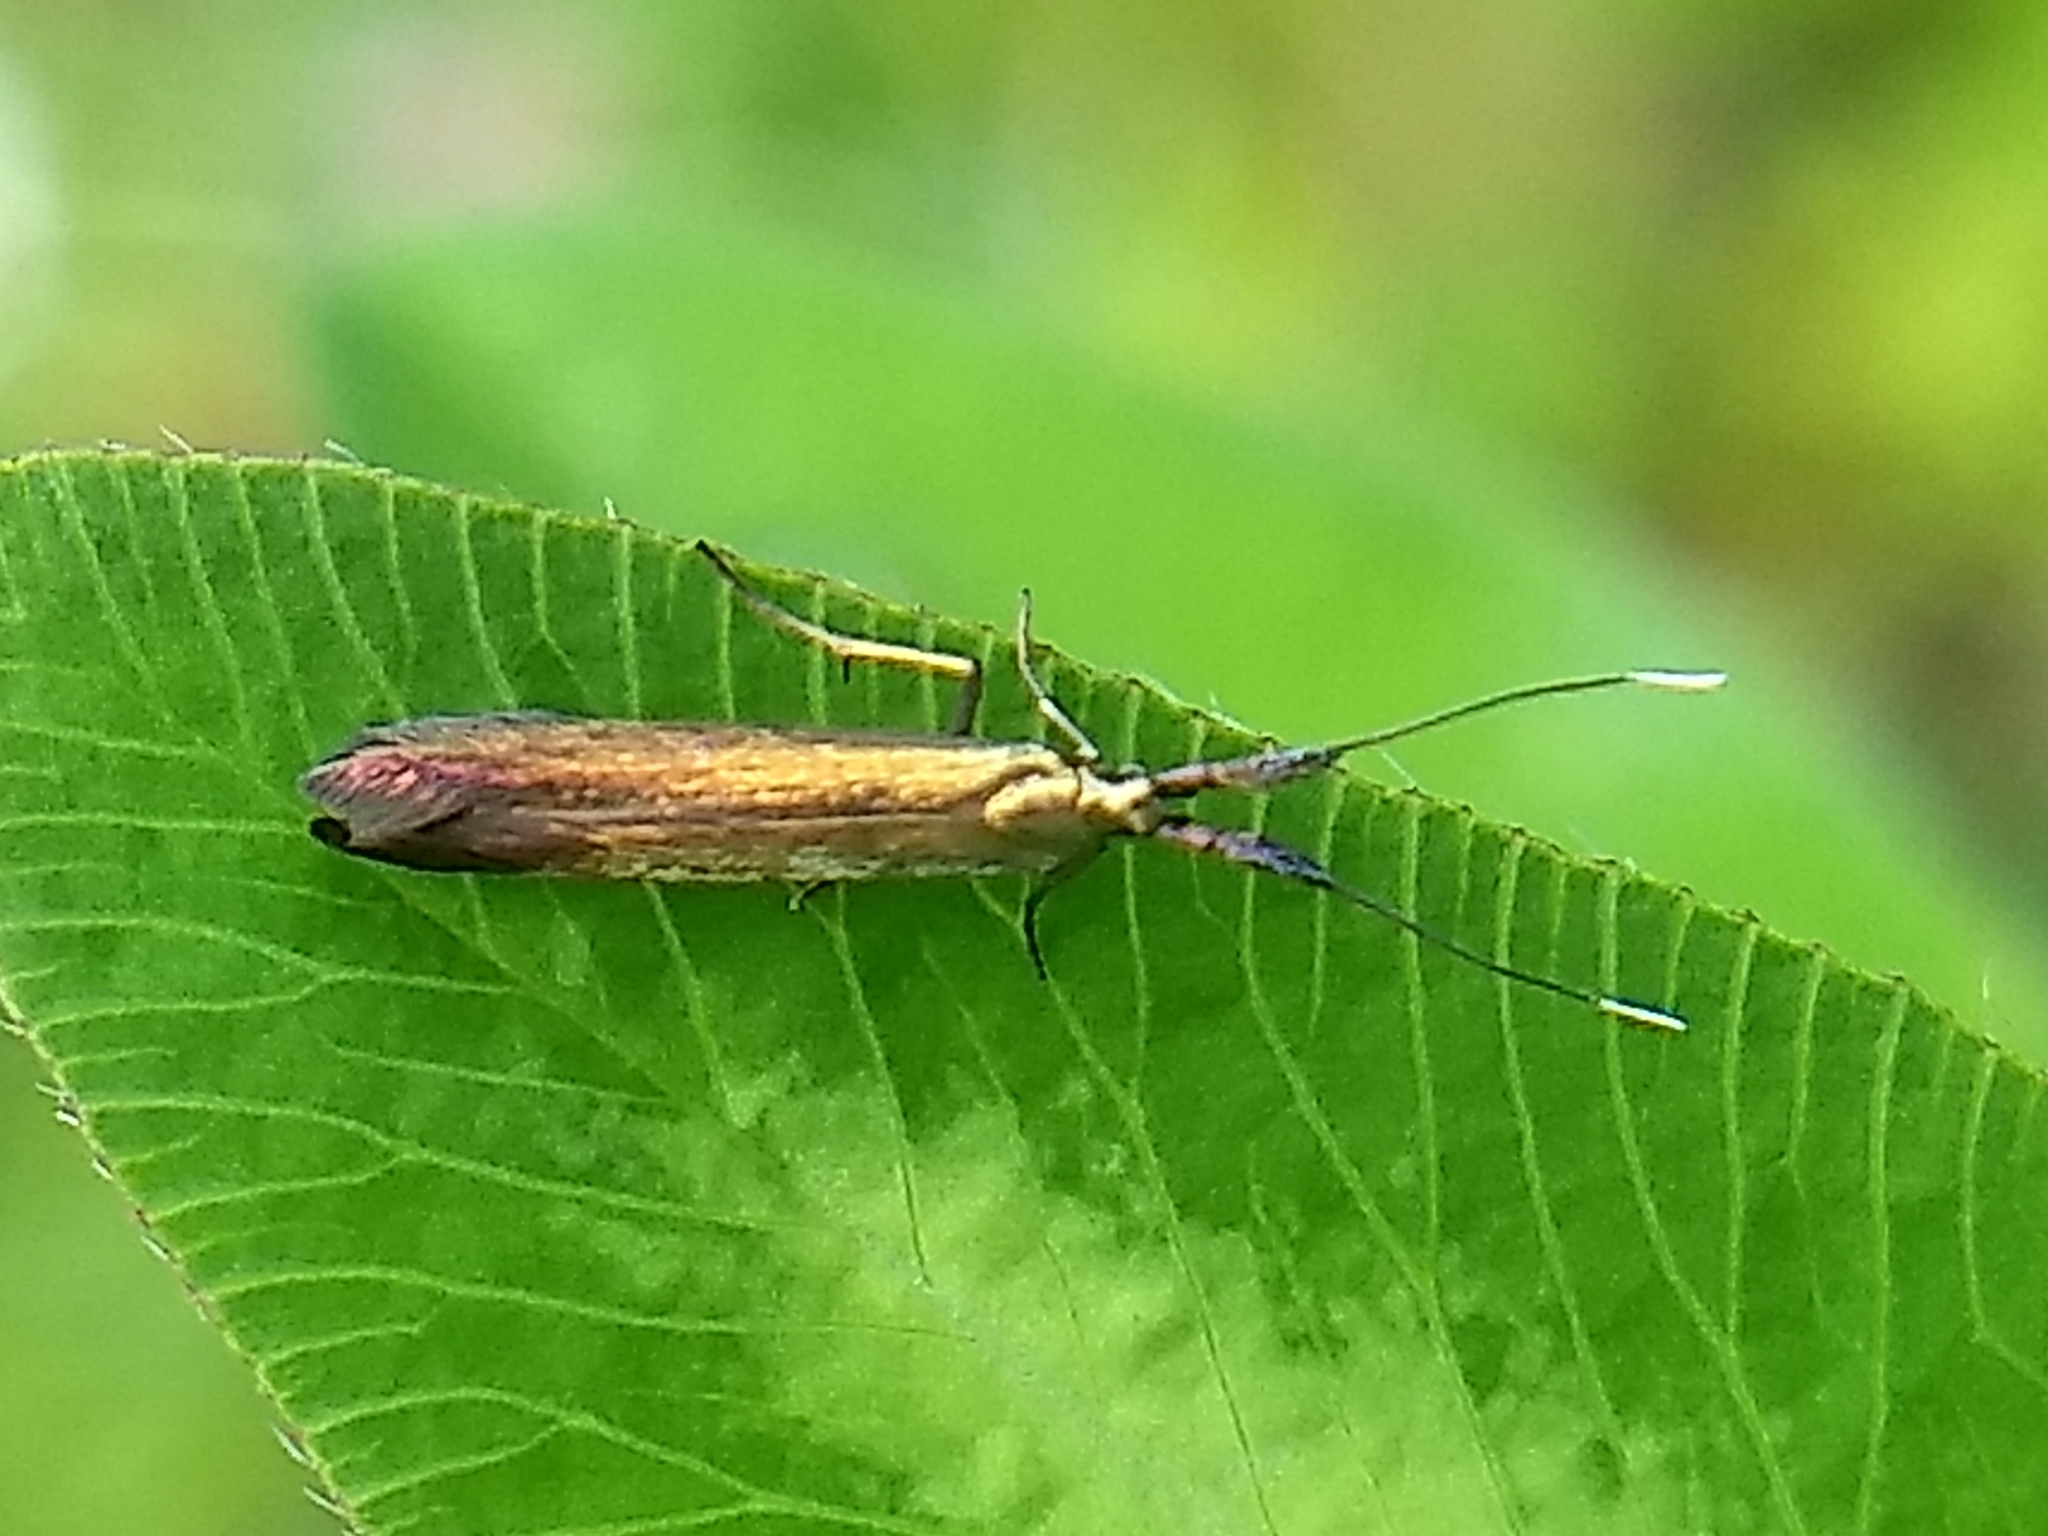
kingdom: Animalia
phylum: Arthropoda
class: Insecta
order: Lepidoptera
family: Coleophoridae
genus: Coleophora
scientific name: Coleophora deauratella
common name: Red-clover case-bearer
